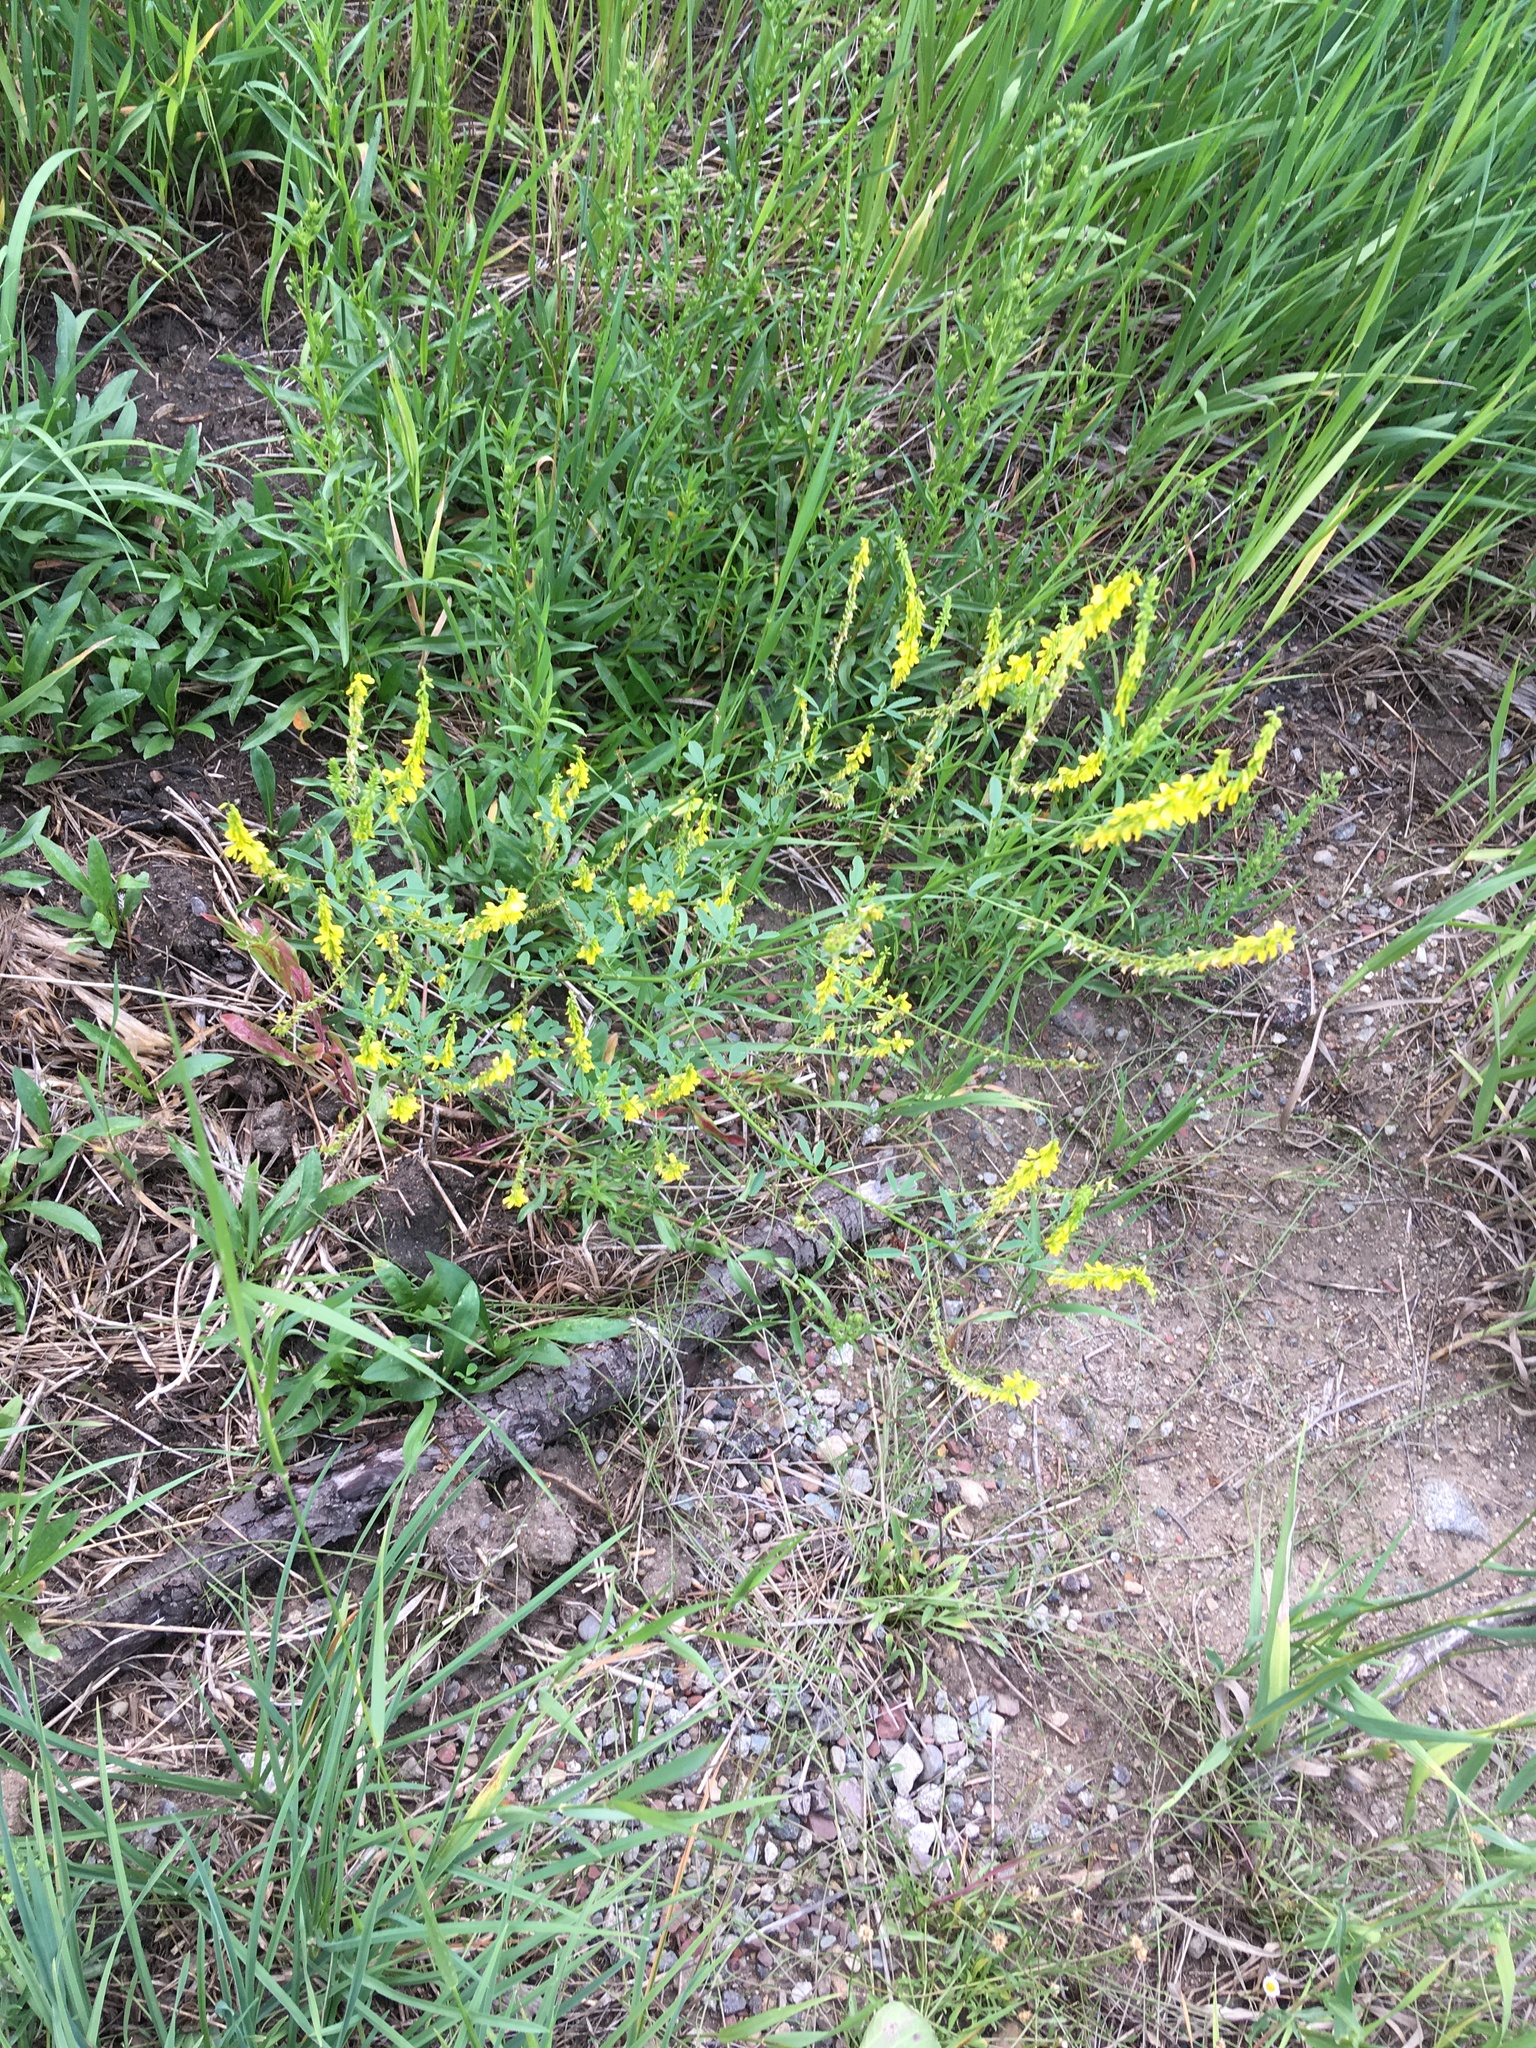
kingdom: Plantae
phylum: Tracheophyta
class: Magnoliopsida
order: Fabales
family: Fabaceae
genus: Melilotus
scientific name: Melilotus officinalis
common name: Sweetclover
